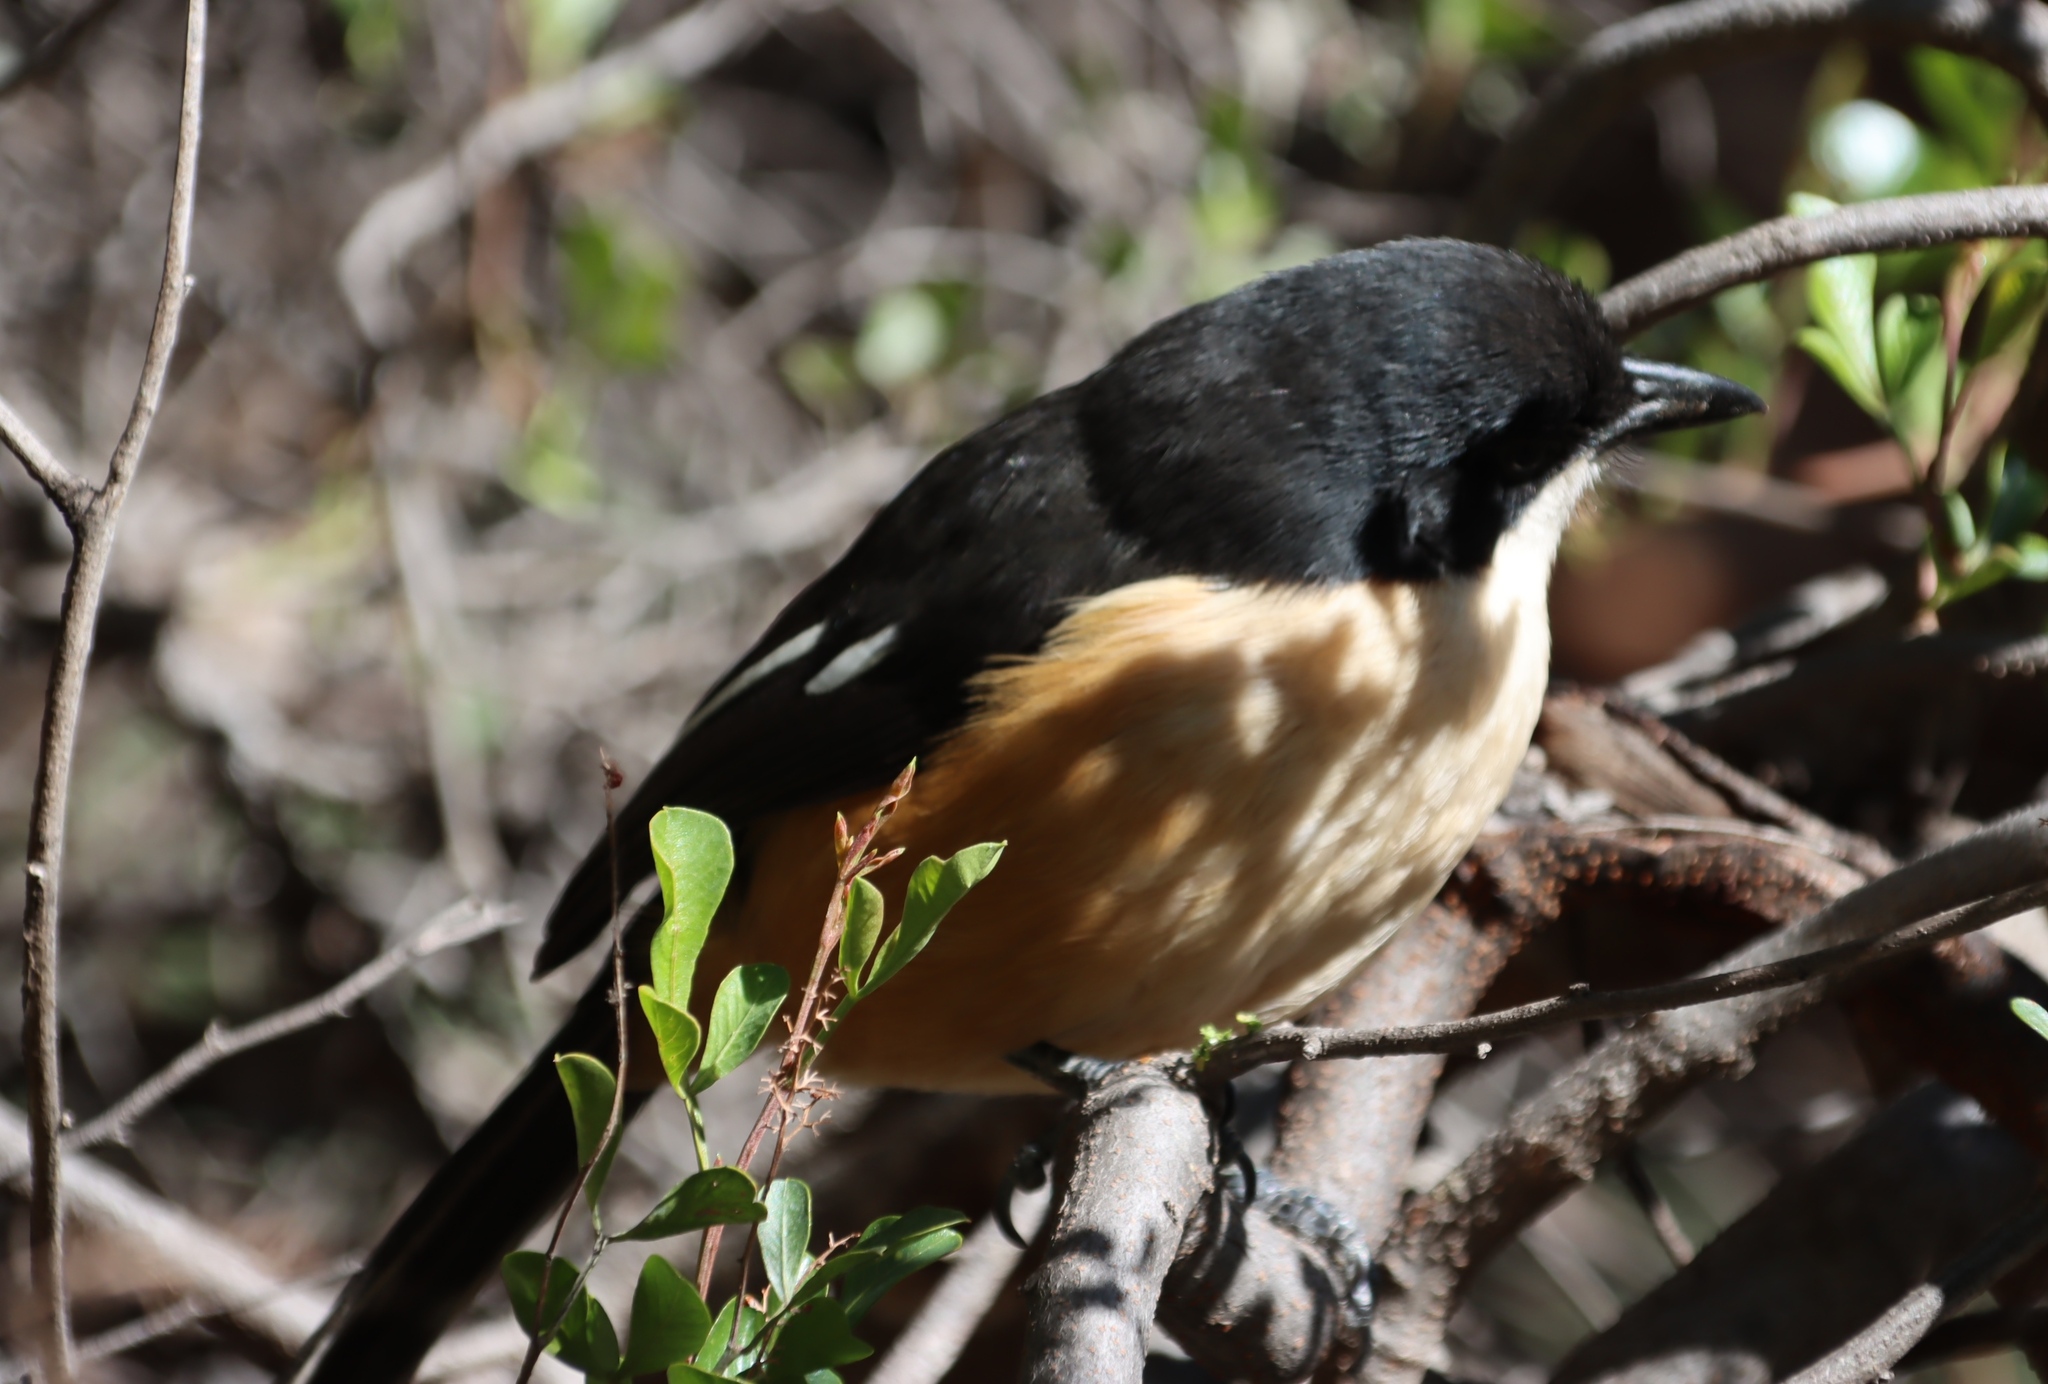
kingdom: Animalia
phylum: Chordata
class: Aves
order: Passeriformes
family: Malaconotidae
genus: Laniarius
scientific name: Laniarius ferrugineus
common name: Southern boubou
